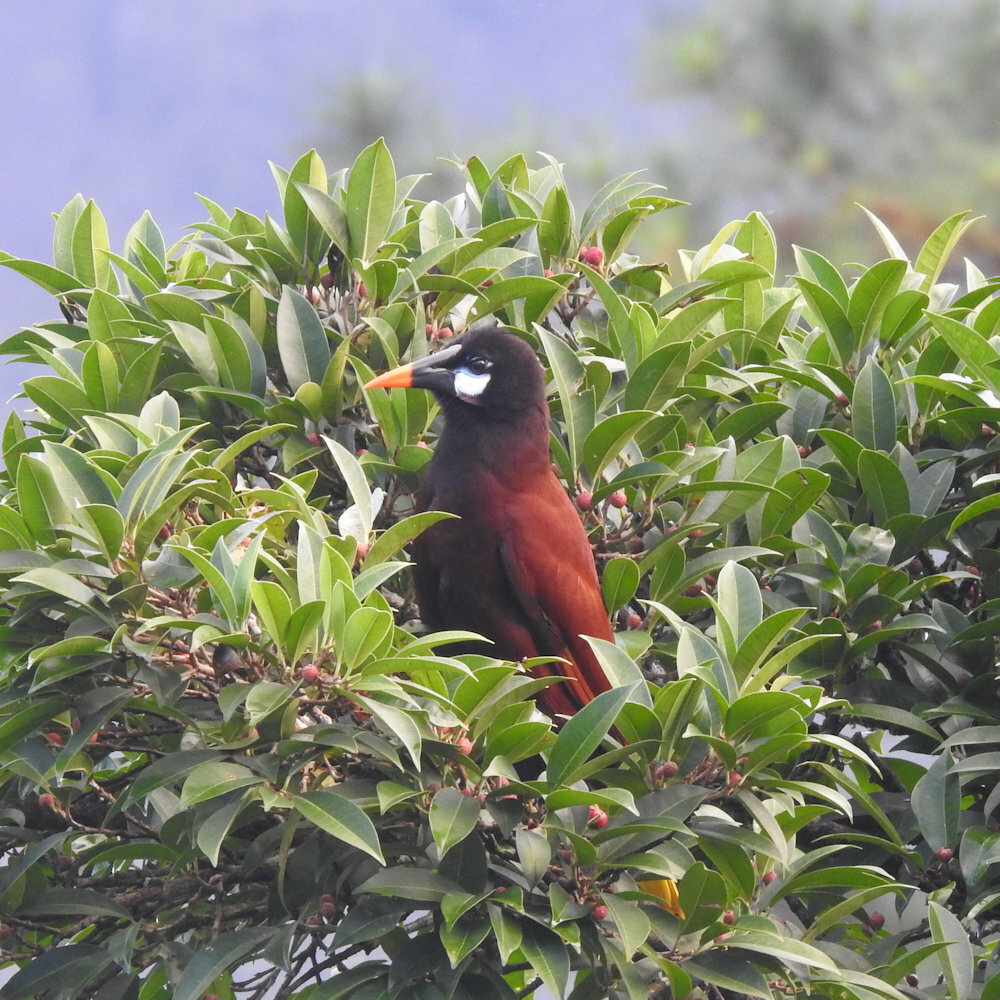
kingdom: Animalia
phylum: Chordata
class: Aves
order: Passeriformes
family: Icteridae
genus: Psarocolius
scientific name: Psarocolius montezuma
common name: Montezuma oropendola
